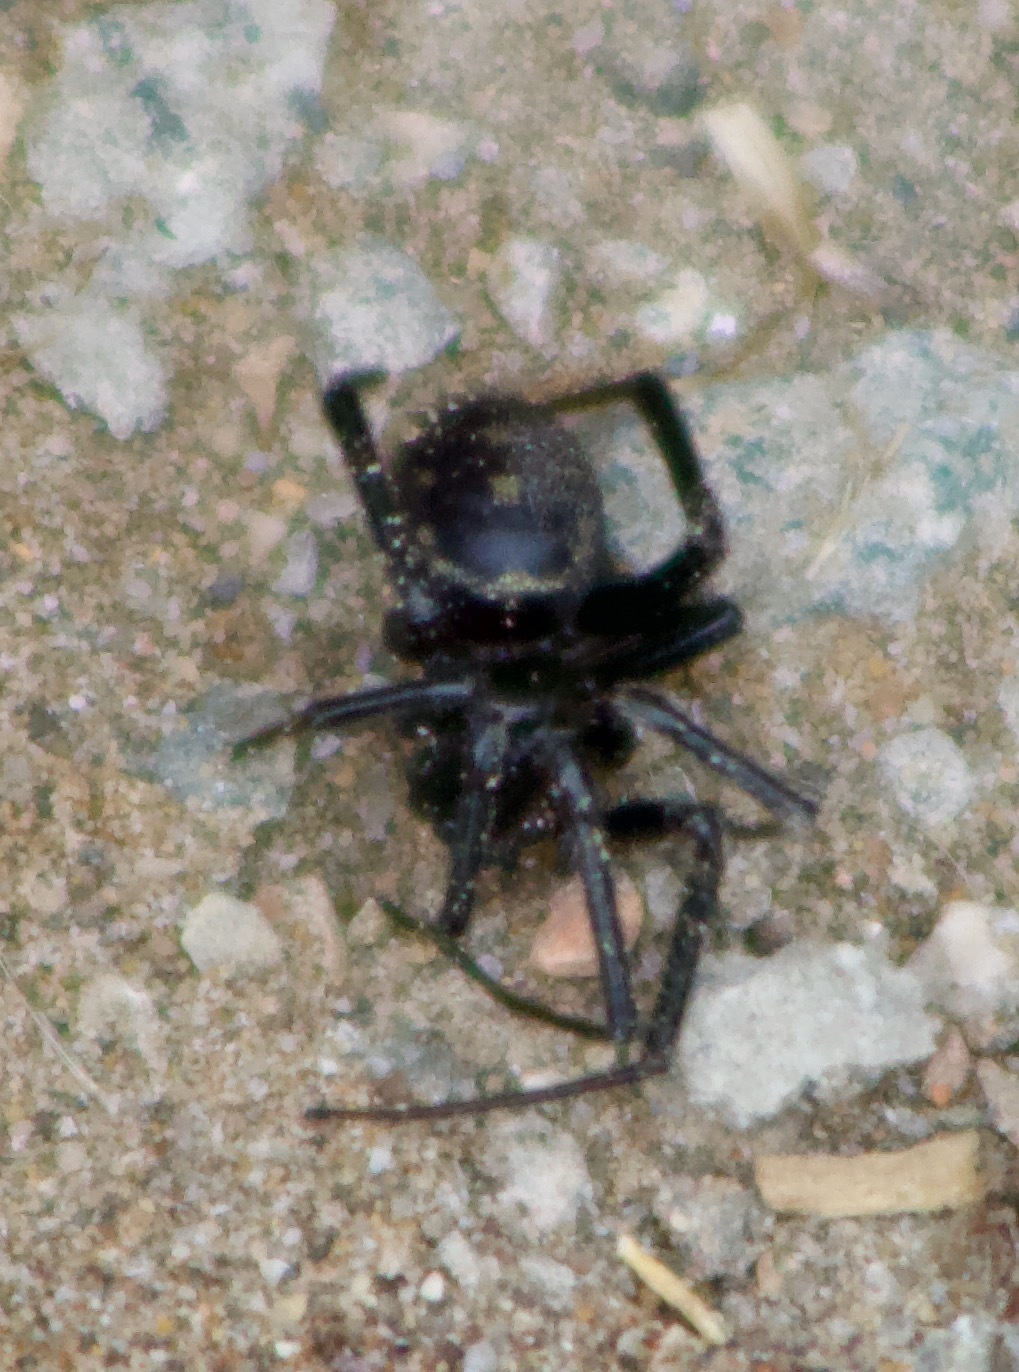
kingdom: Animalia
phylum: Arthropoda
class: Arachnida
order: Araneae
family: Theridiidae
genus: Steatoda
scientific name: Steatoda grossa
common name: False black widow
